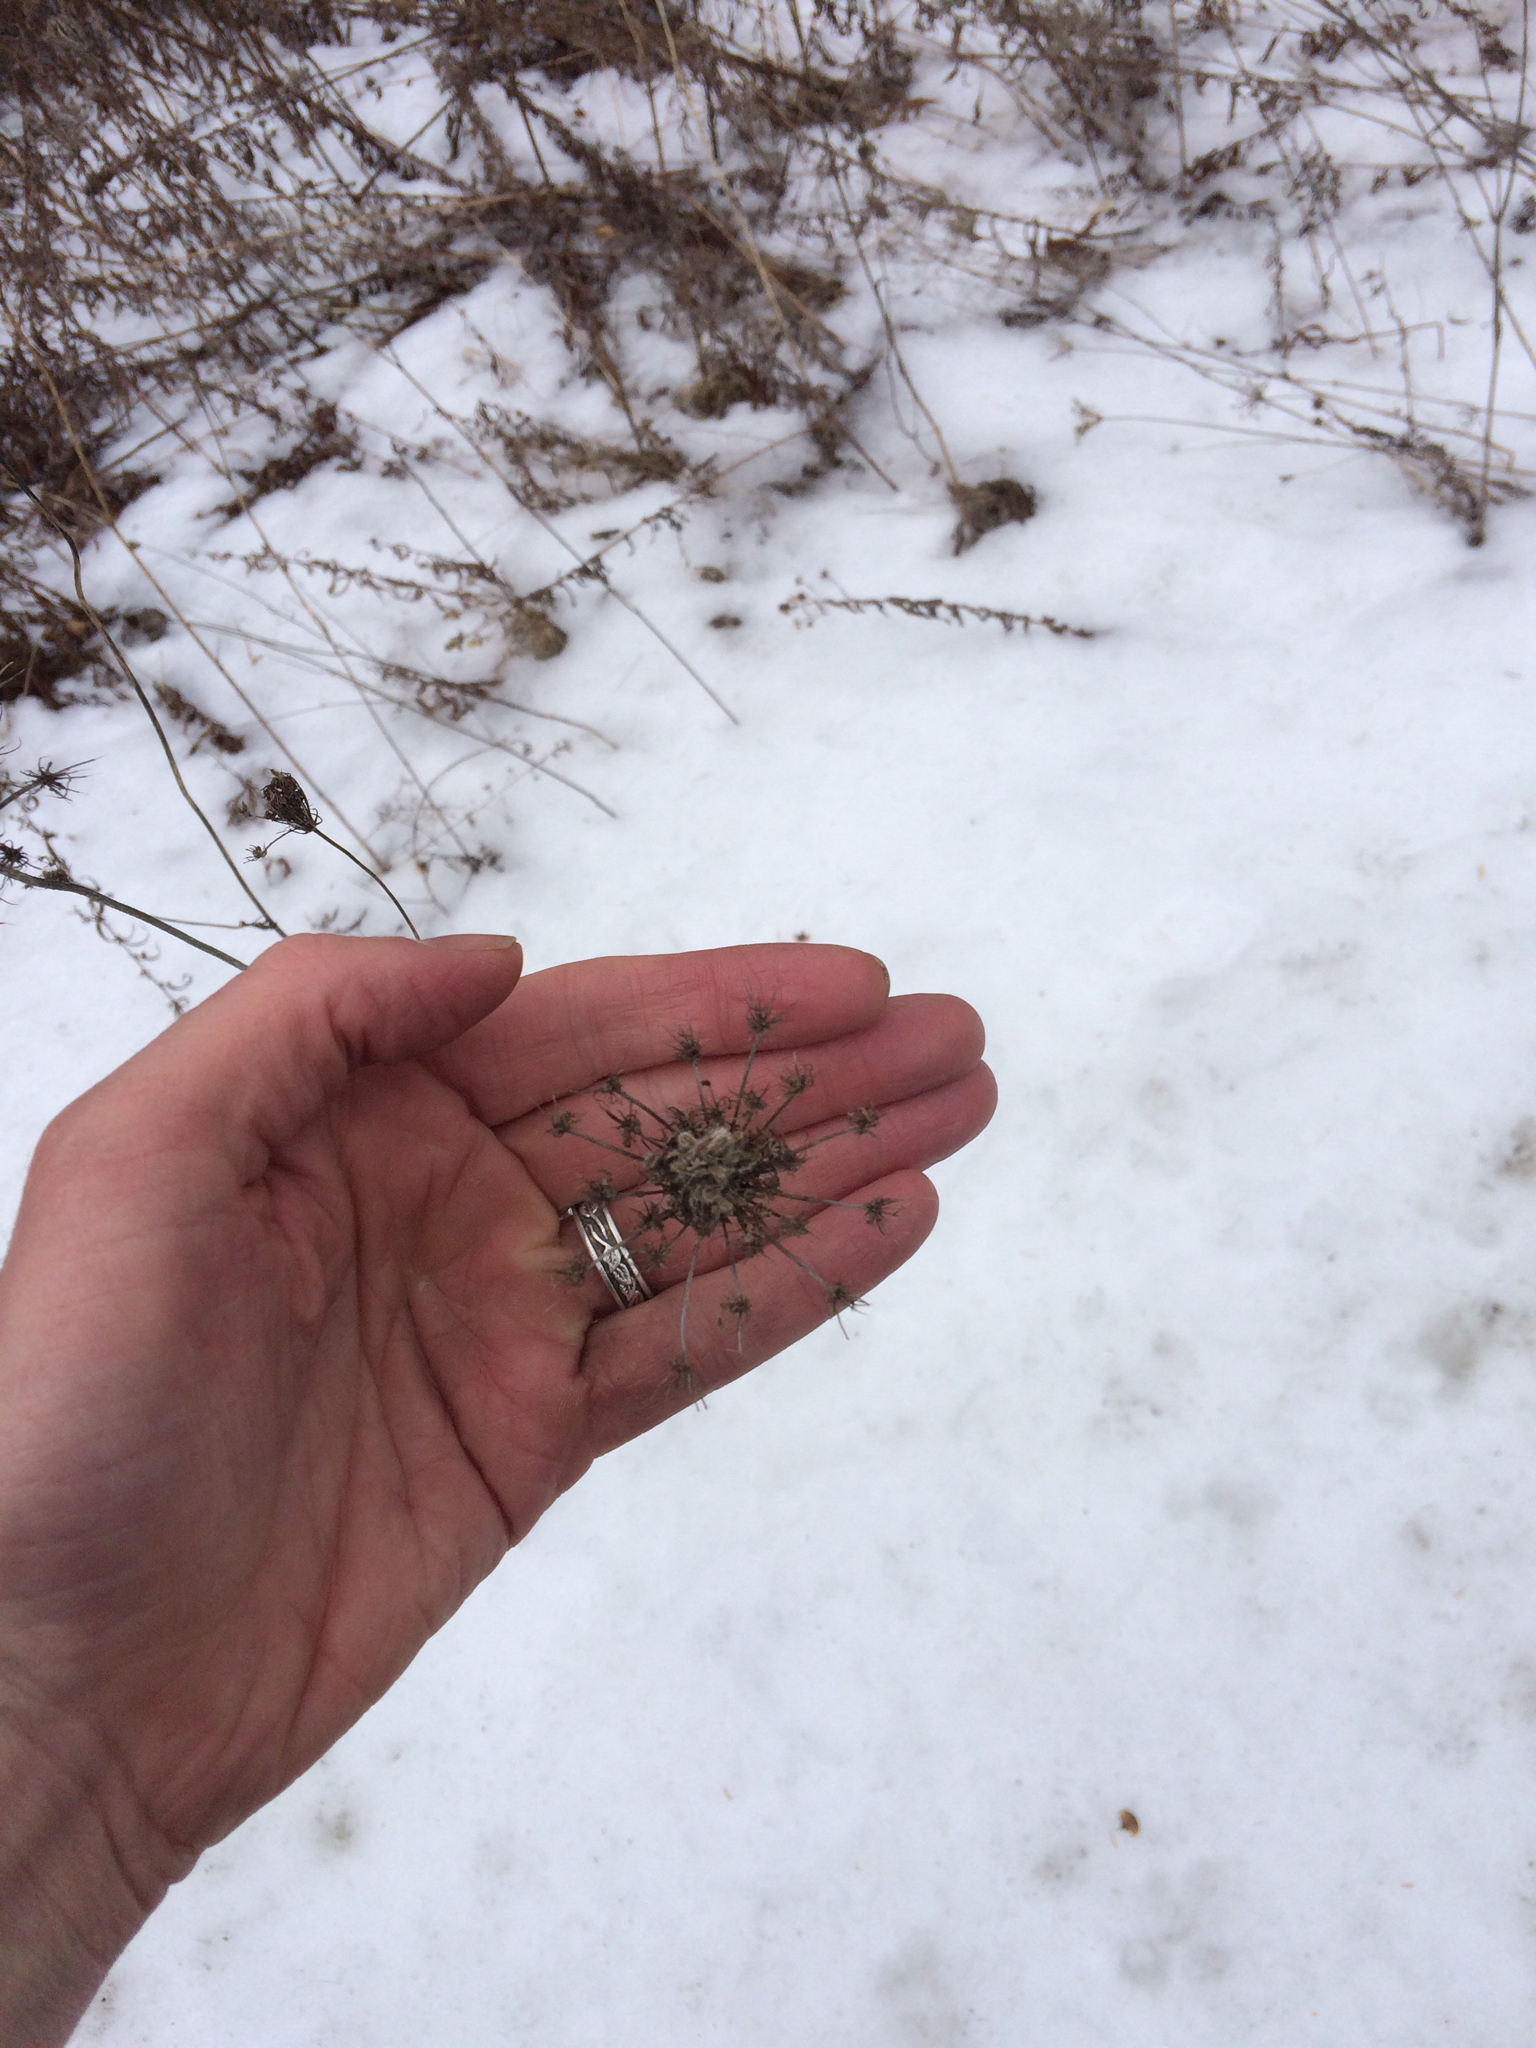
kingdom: Plantae
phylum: Tracheophyta
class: Magnoliopsida
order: Apiales
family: Apiaceae
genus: Daucus
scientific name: Daucus carota
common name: Wild carrot
